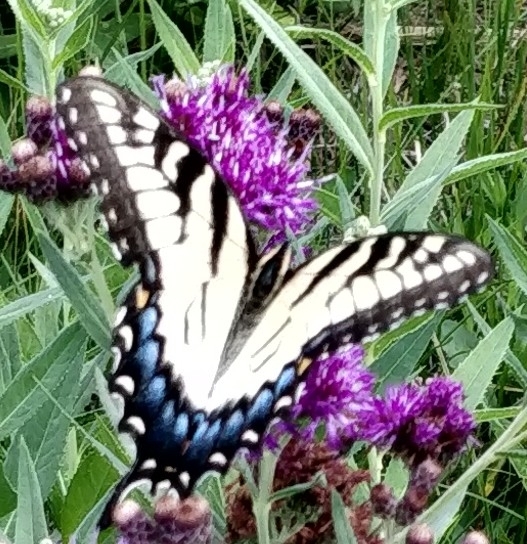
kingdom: Animalia
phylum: Arthropoda
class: Insecta
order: Lepidoptera
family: Papilionidae
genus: Papilio
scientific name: Papilio glaucus
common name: Tiger swallowtail
